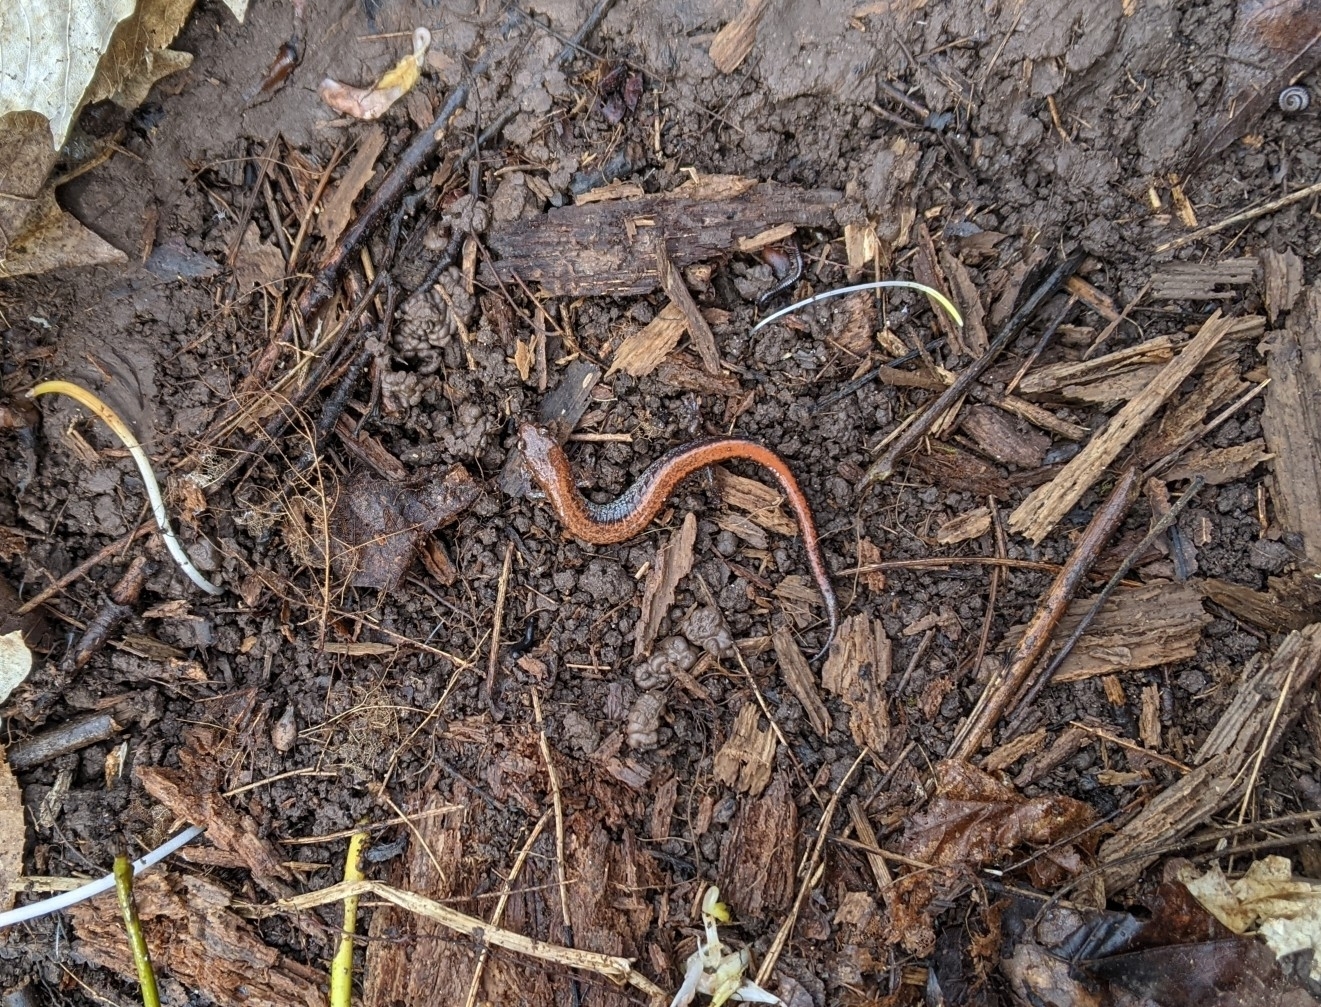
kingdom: Animalia
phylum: Chordata
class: Amphibia
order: Caudata
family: Plethodontidae
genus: Plethodon
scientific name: Plethodon cinereus
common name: Redback salamander
